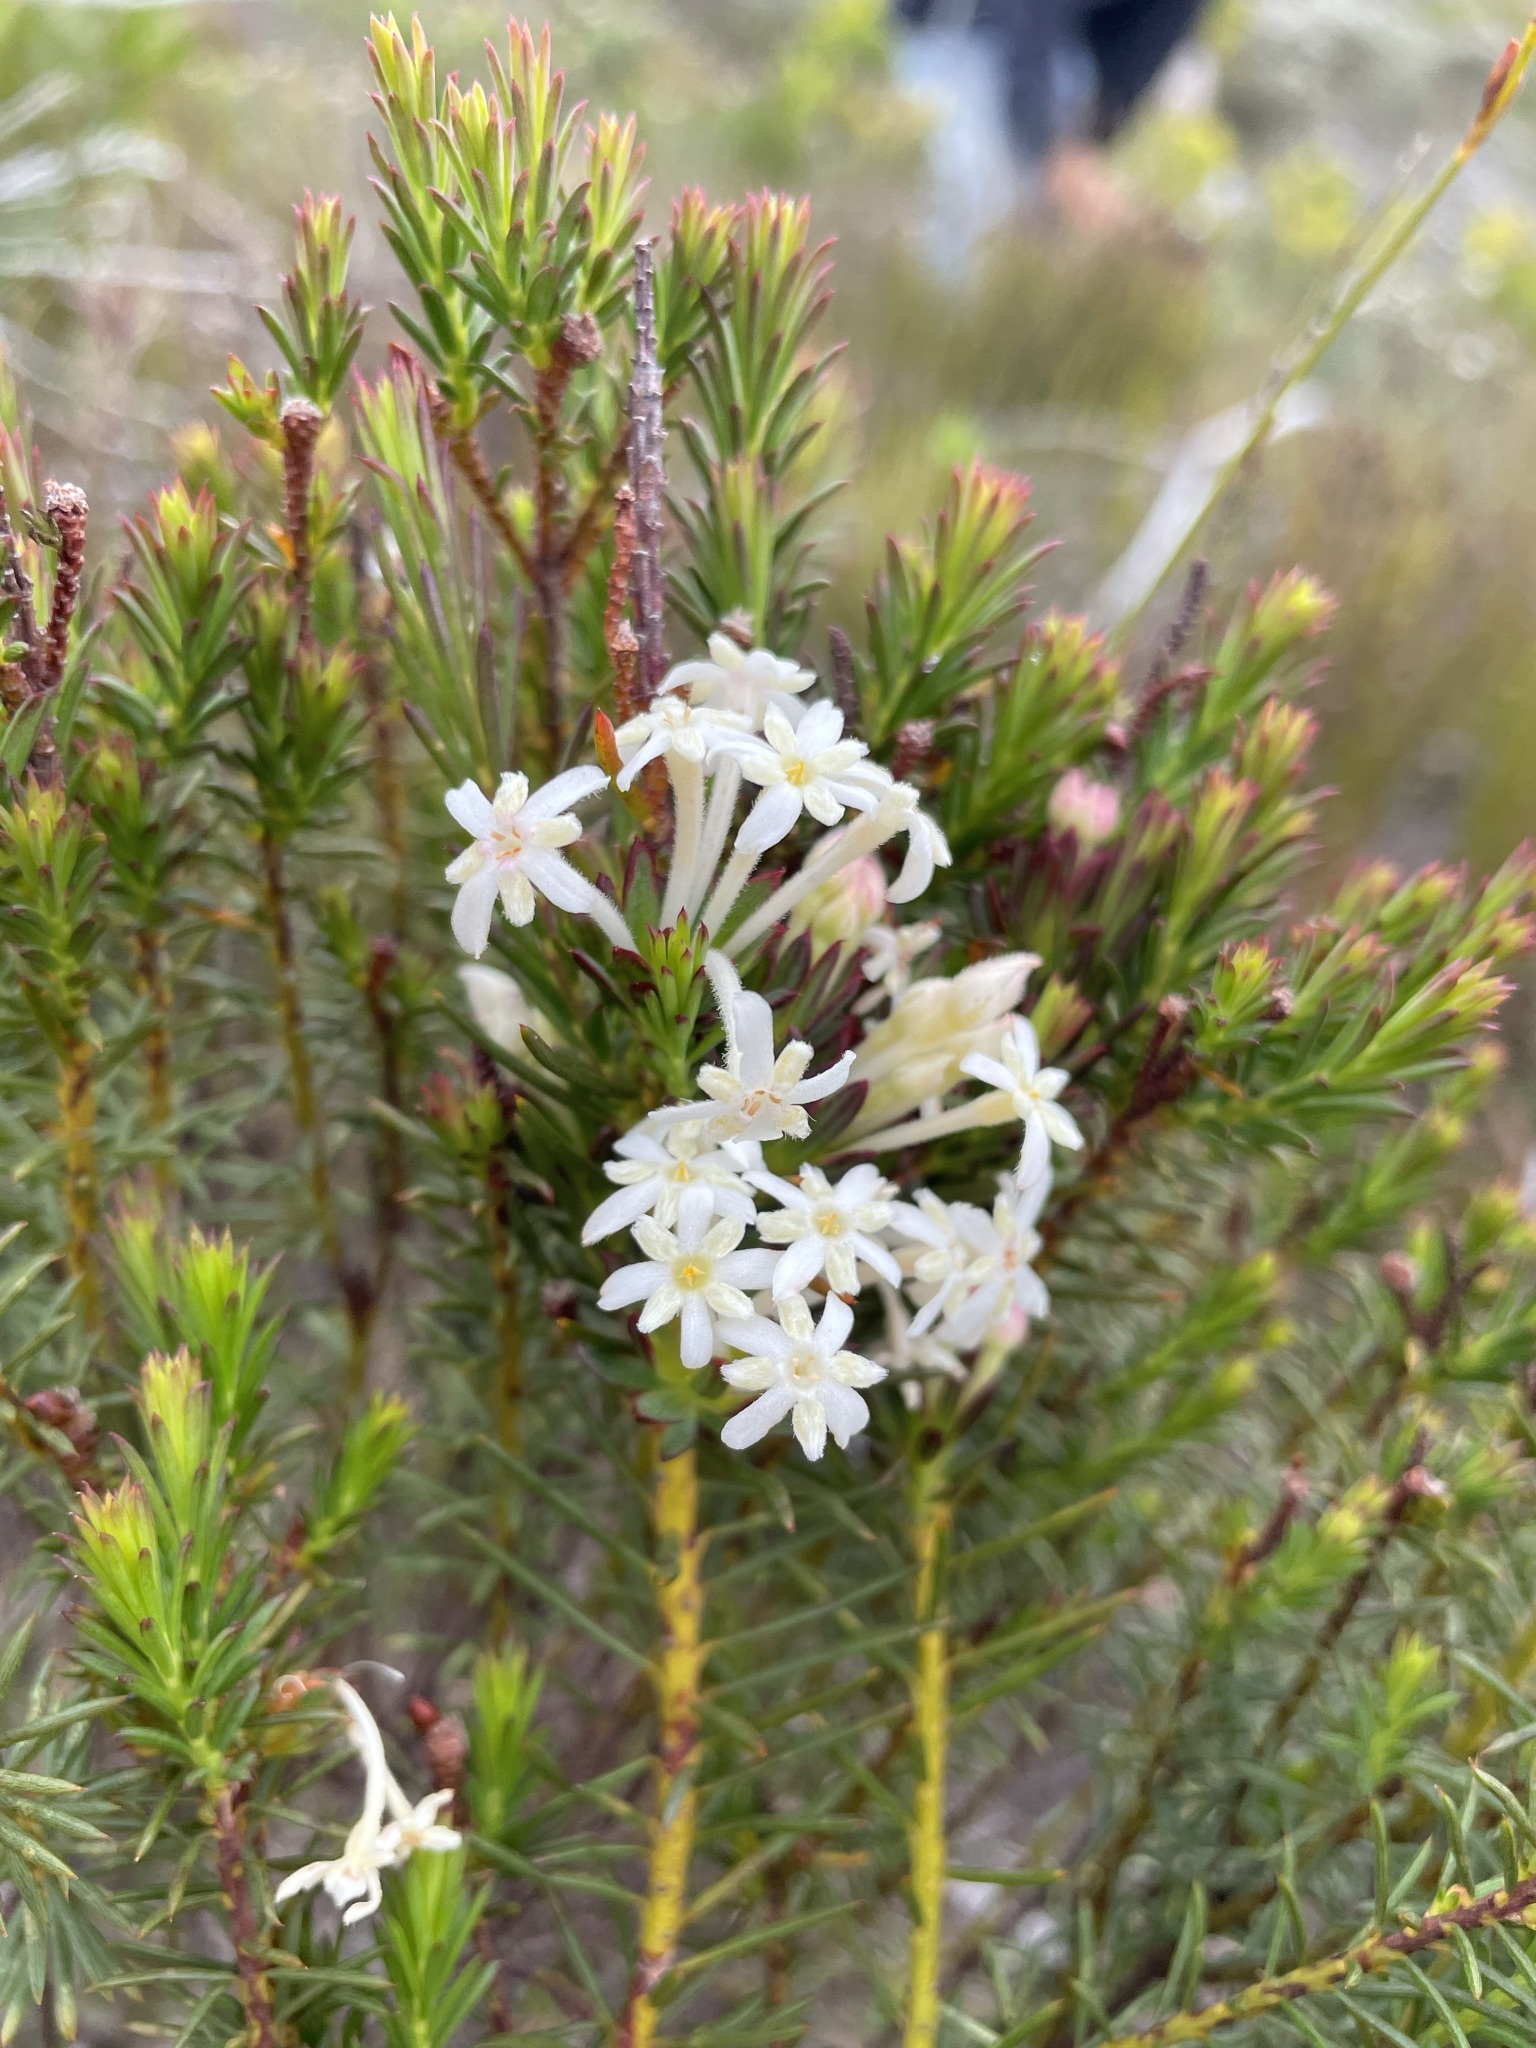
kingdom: Plantae
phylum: Tracheophyta
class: Magnoliopsida
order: Malvales
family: Thymelaeaceae
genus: Gnidia
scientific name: Gnidia pinifolia
